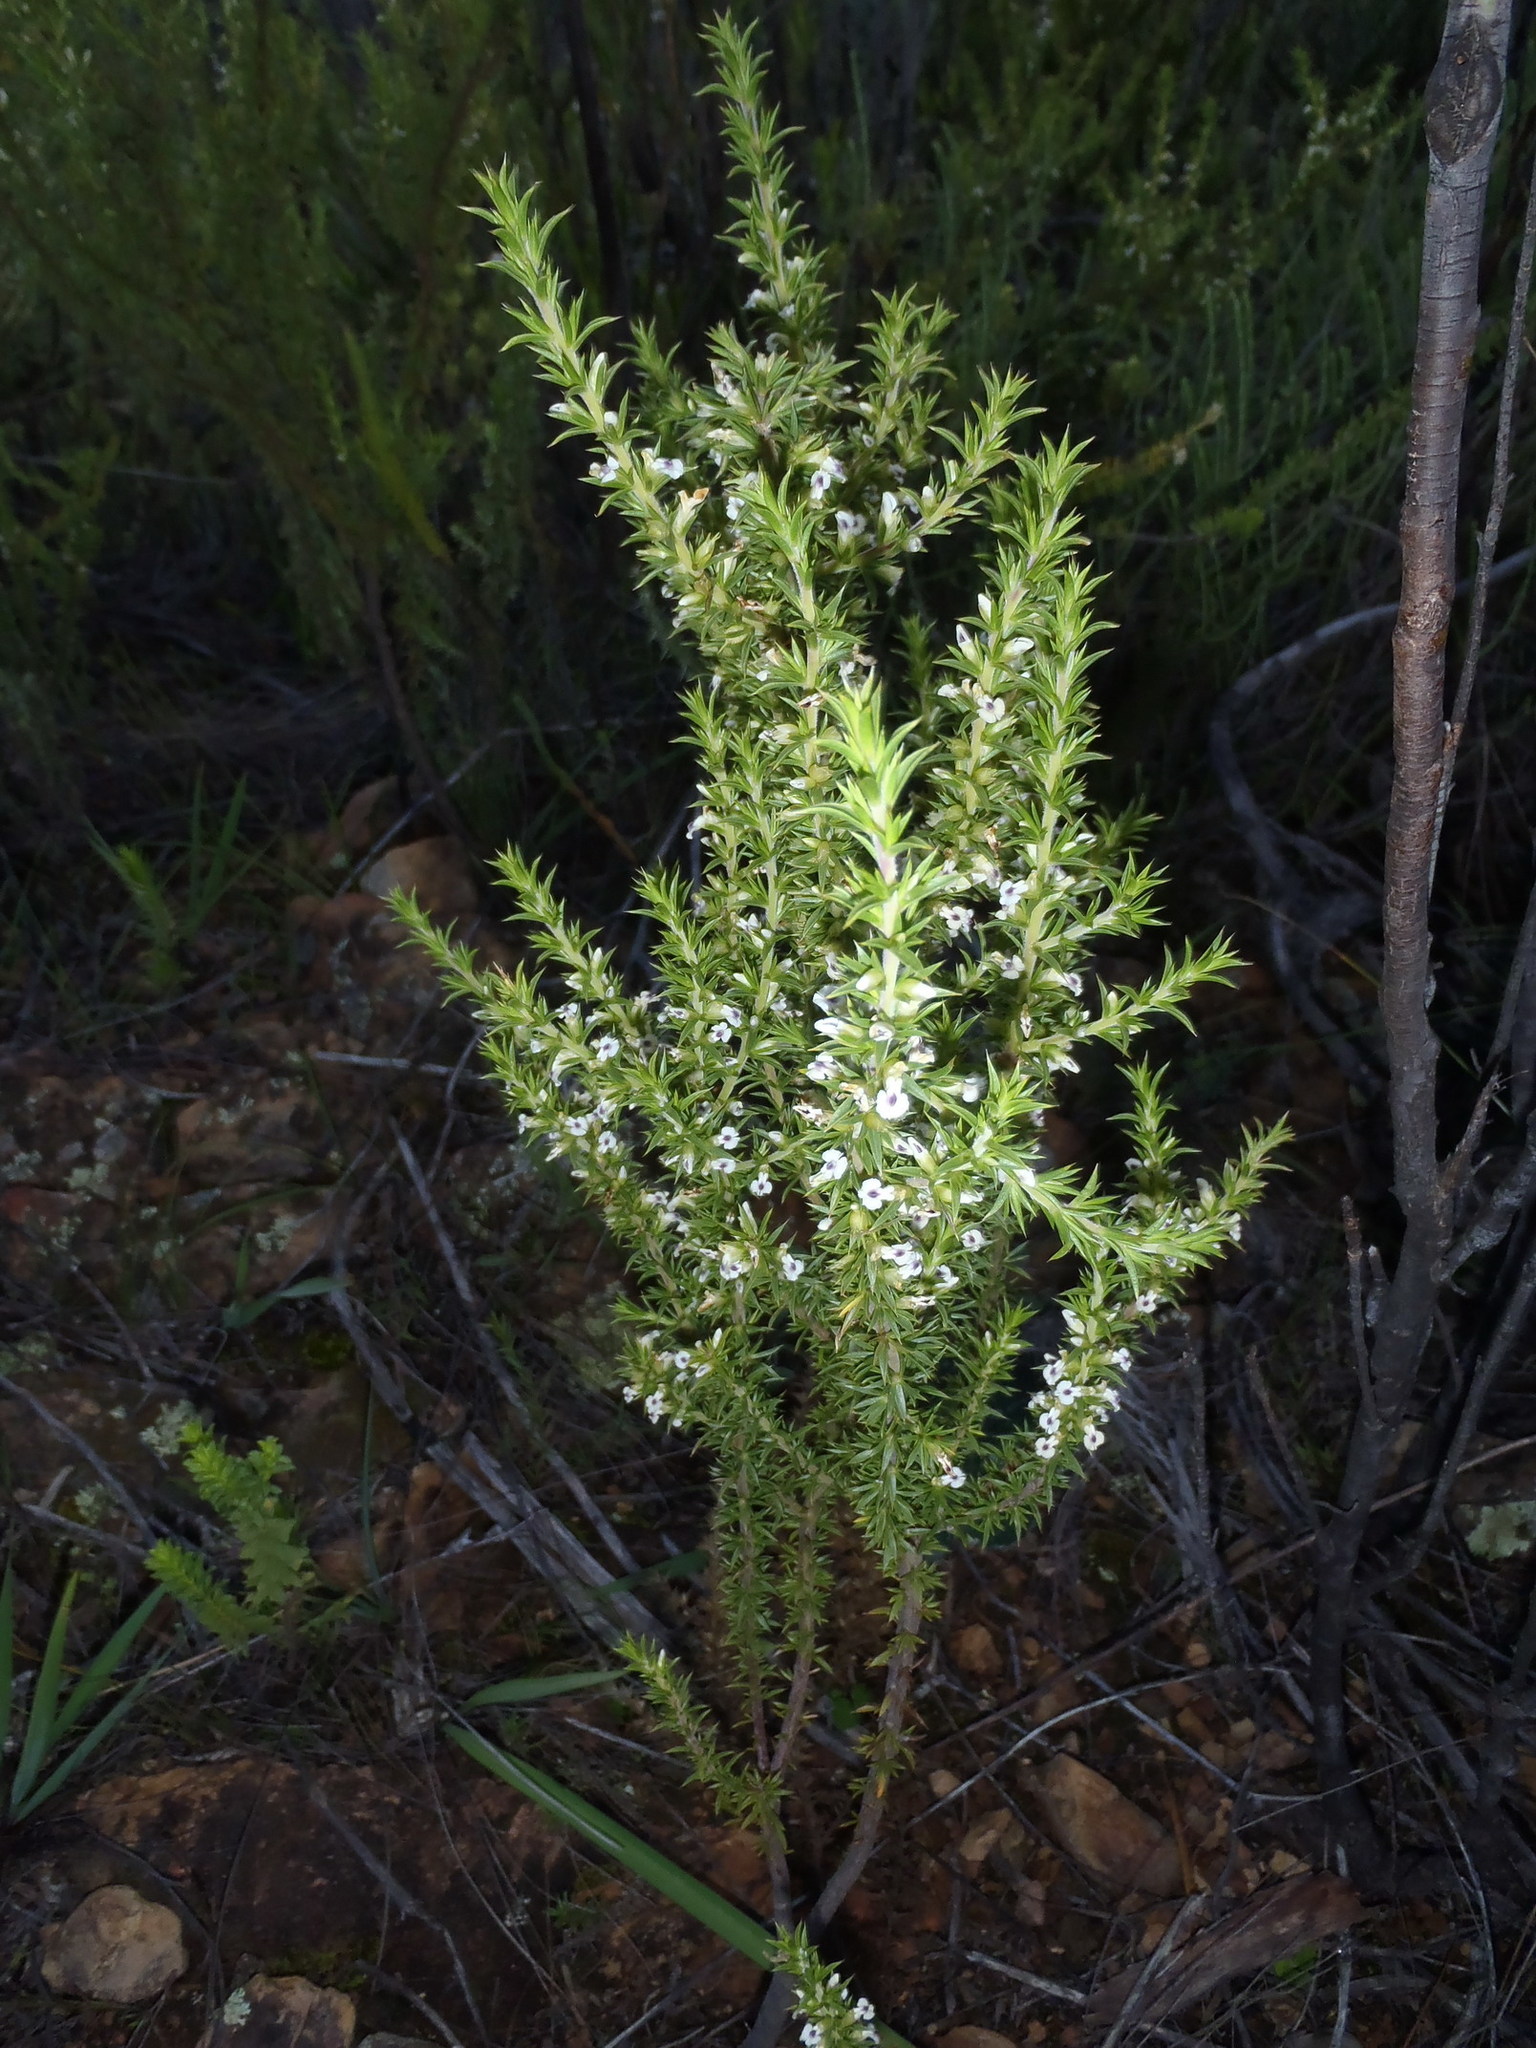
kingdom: Plantae
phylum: Tracheophyta
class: Magnoliopsida
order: Fabales
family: Polygalaceae
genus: Muraltia
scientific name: Muraltia ericifolia
